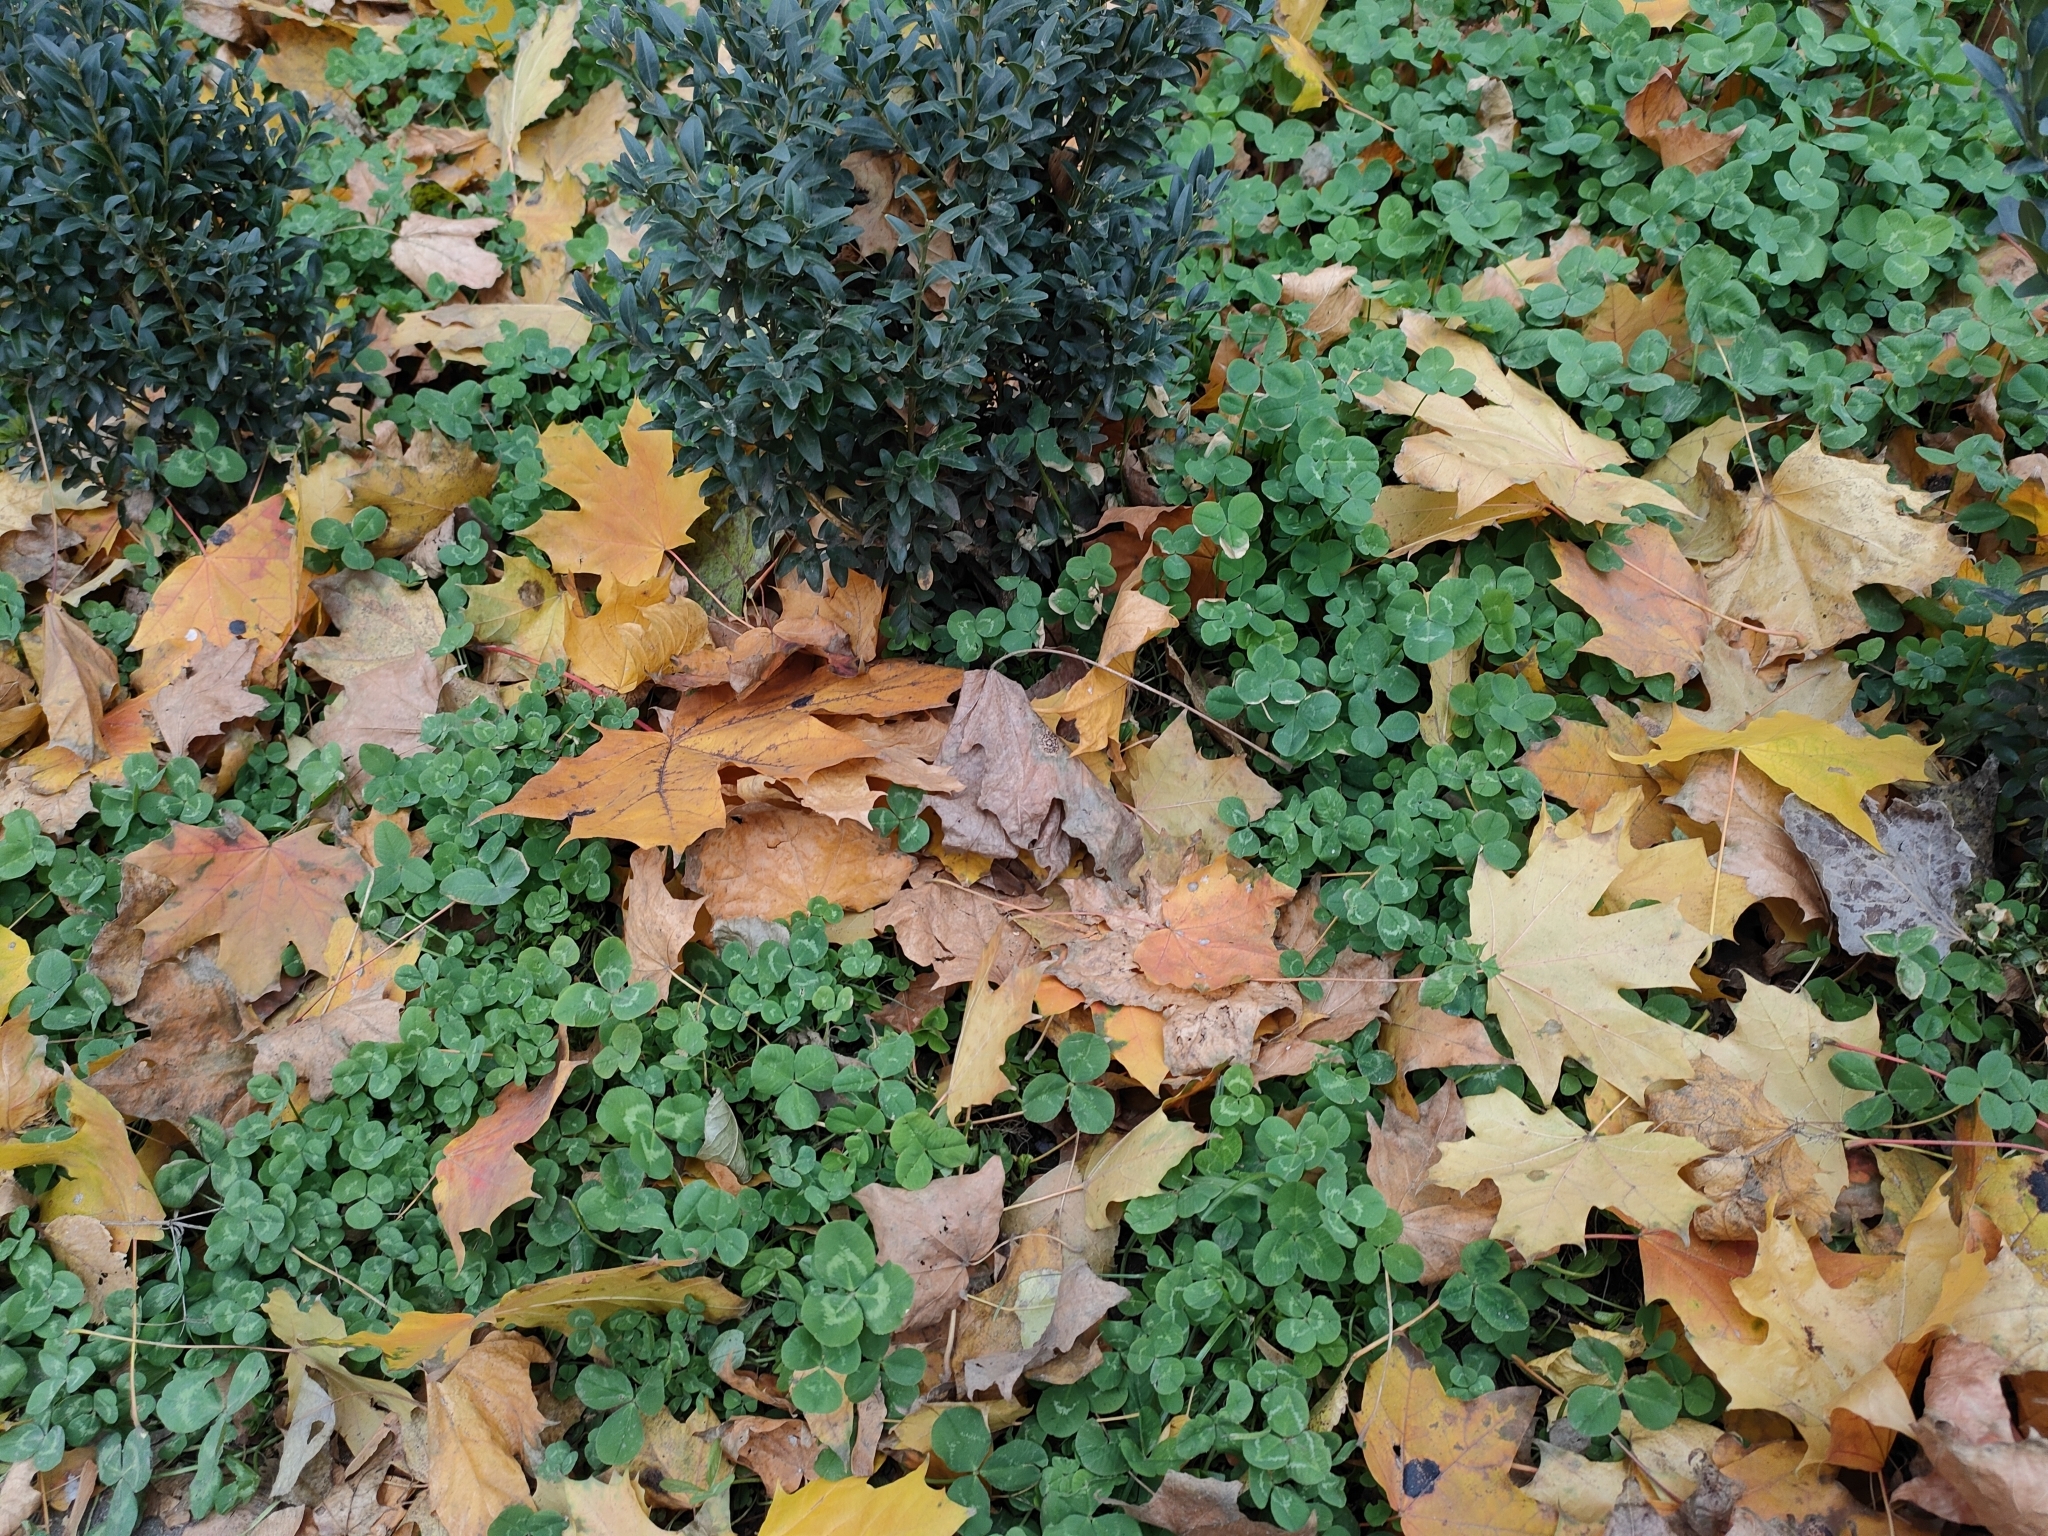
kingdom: Plantae
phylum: Tracheophyta
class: Magnoliopsida
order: Fabales
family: Fabaceae
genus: Trifolium
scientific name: Trifolium repens
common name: White clover
